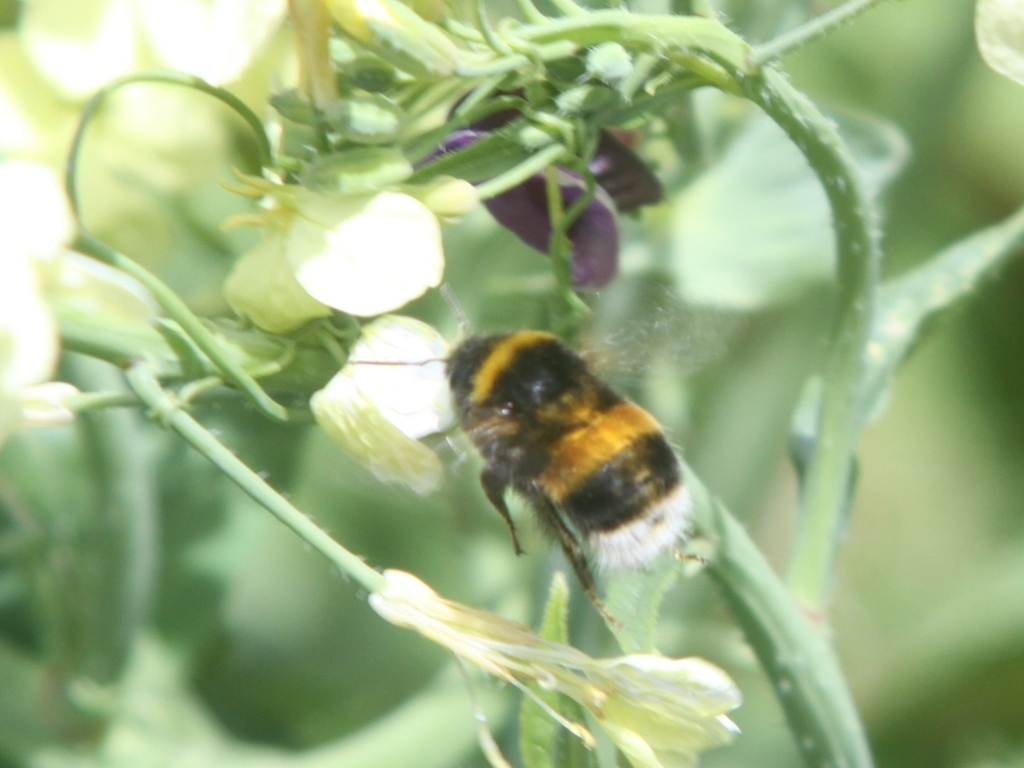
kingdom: Animalia
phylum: Arthropoda
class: Insecta
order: Hymenoptera
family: Apidae
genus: Bombus
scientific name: Bombus terrestris
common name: Buff-tailed bumblebee
